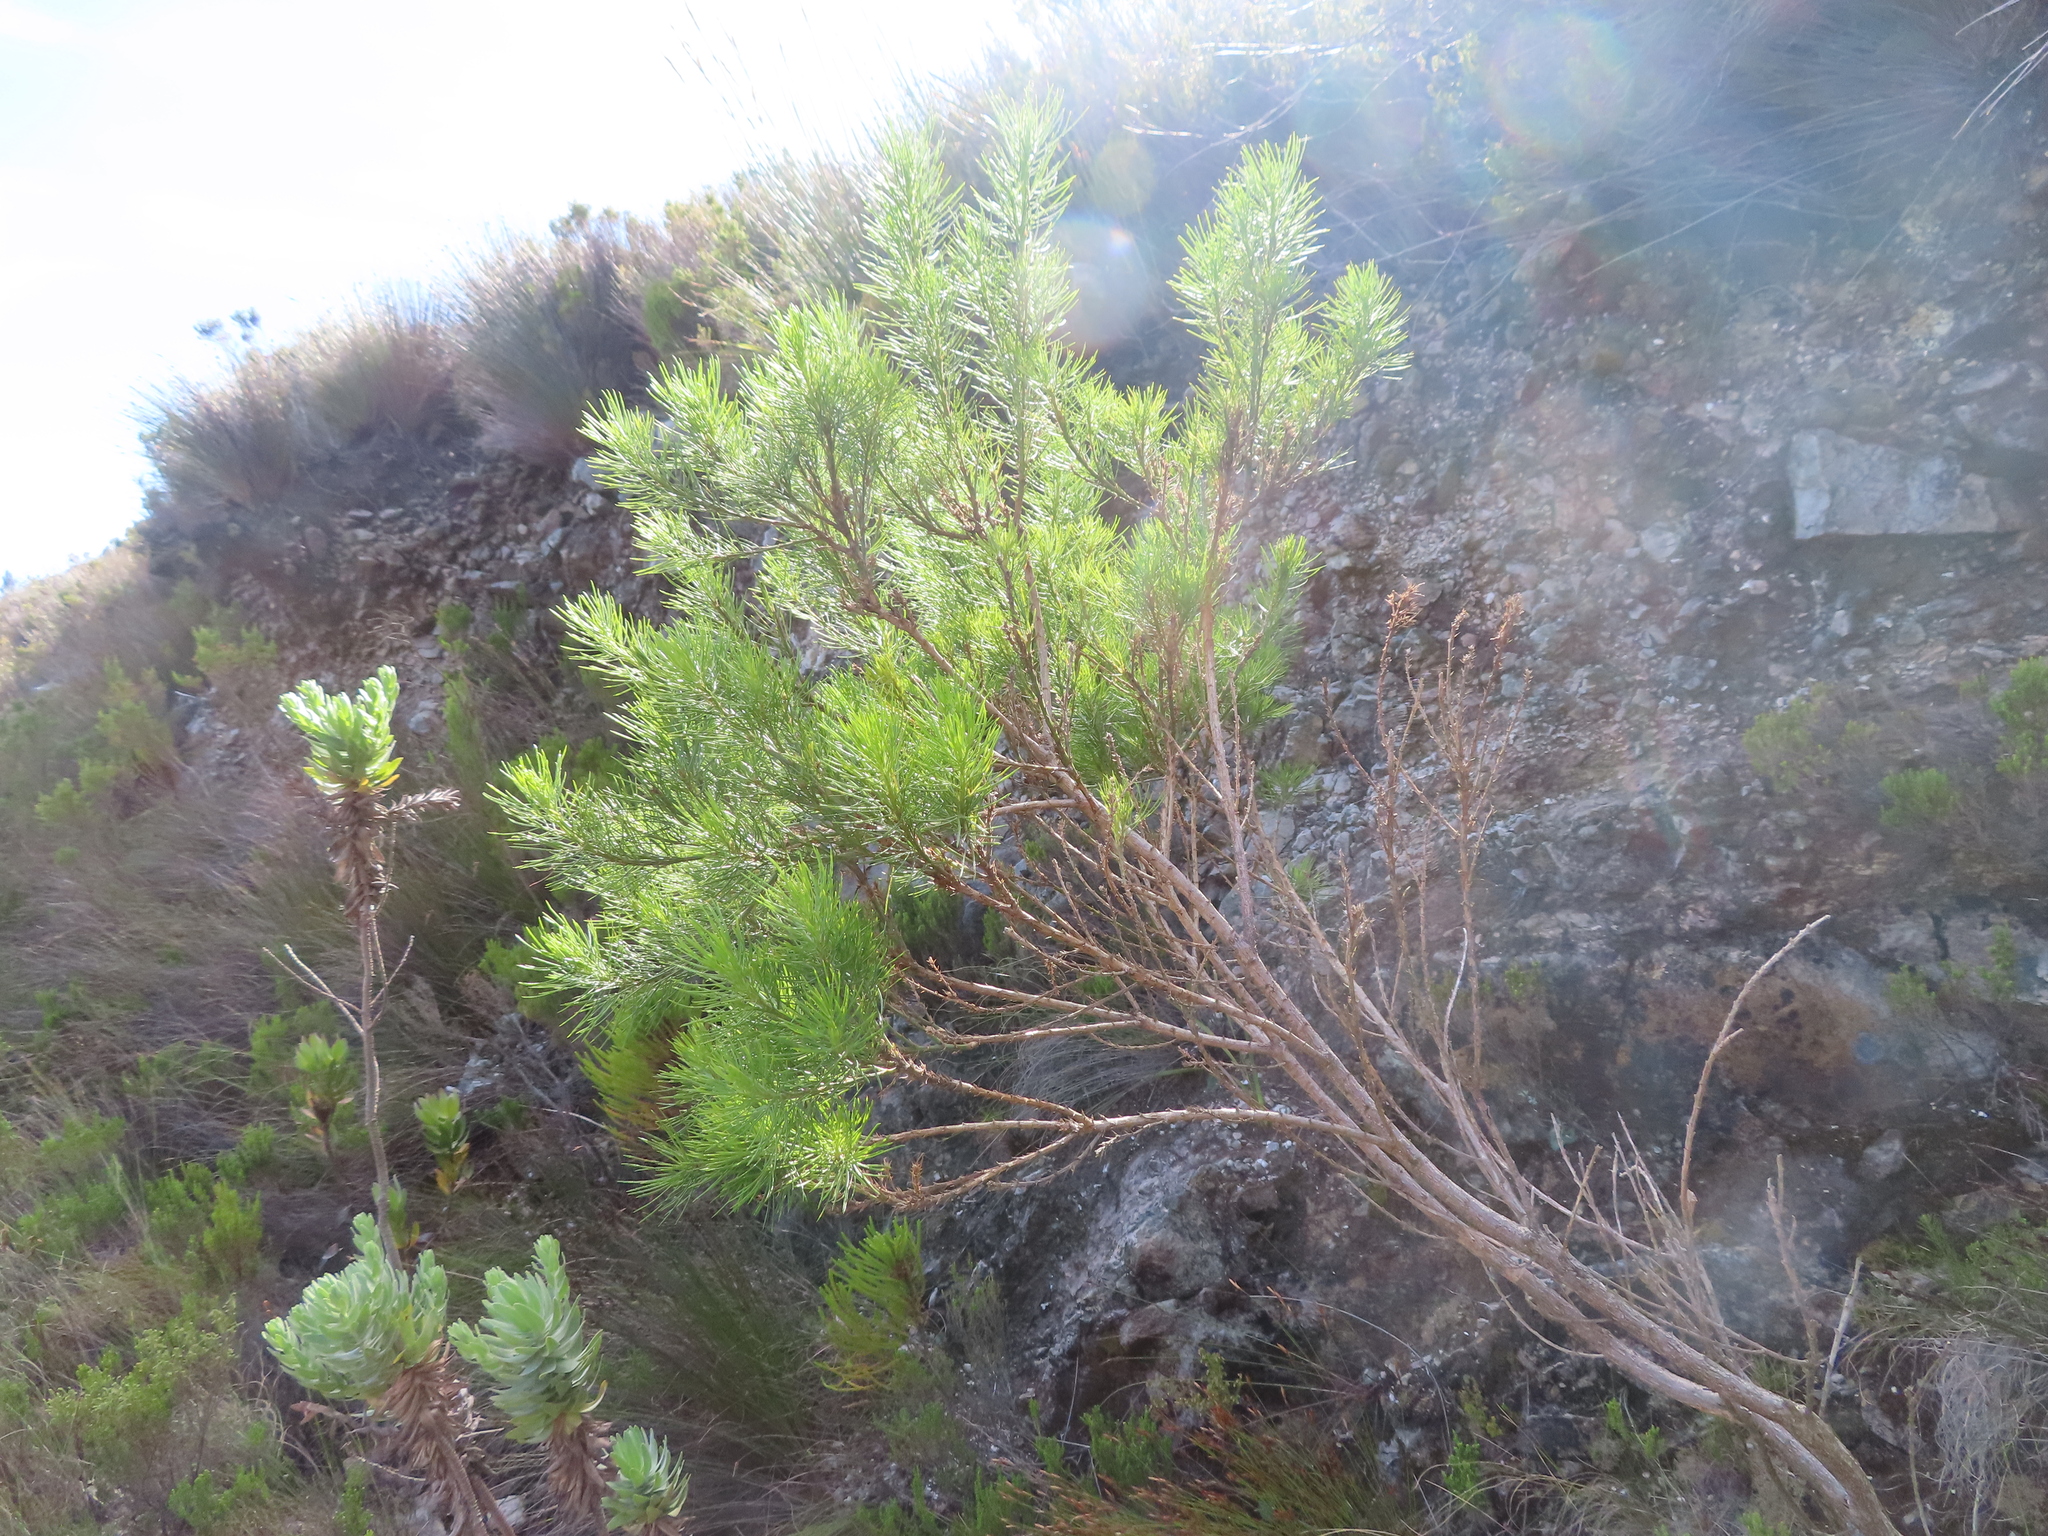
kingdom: Plantae
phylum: Tracheophyta
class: Magnoliopsida
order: Fabales
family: Fabaceae
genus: Psoralea
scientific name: Psoralea pinnata
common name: African scurfpea
